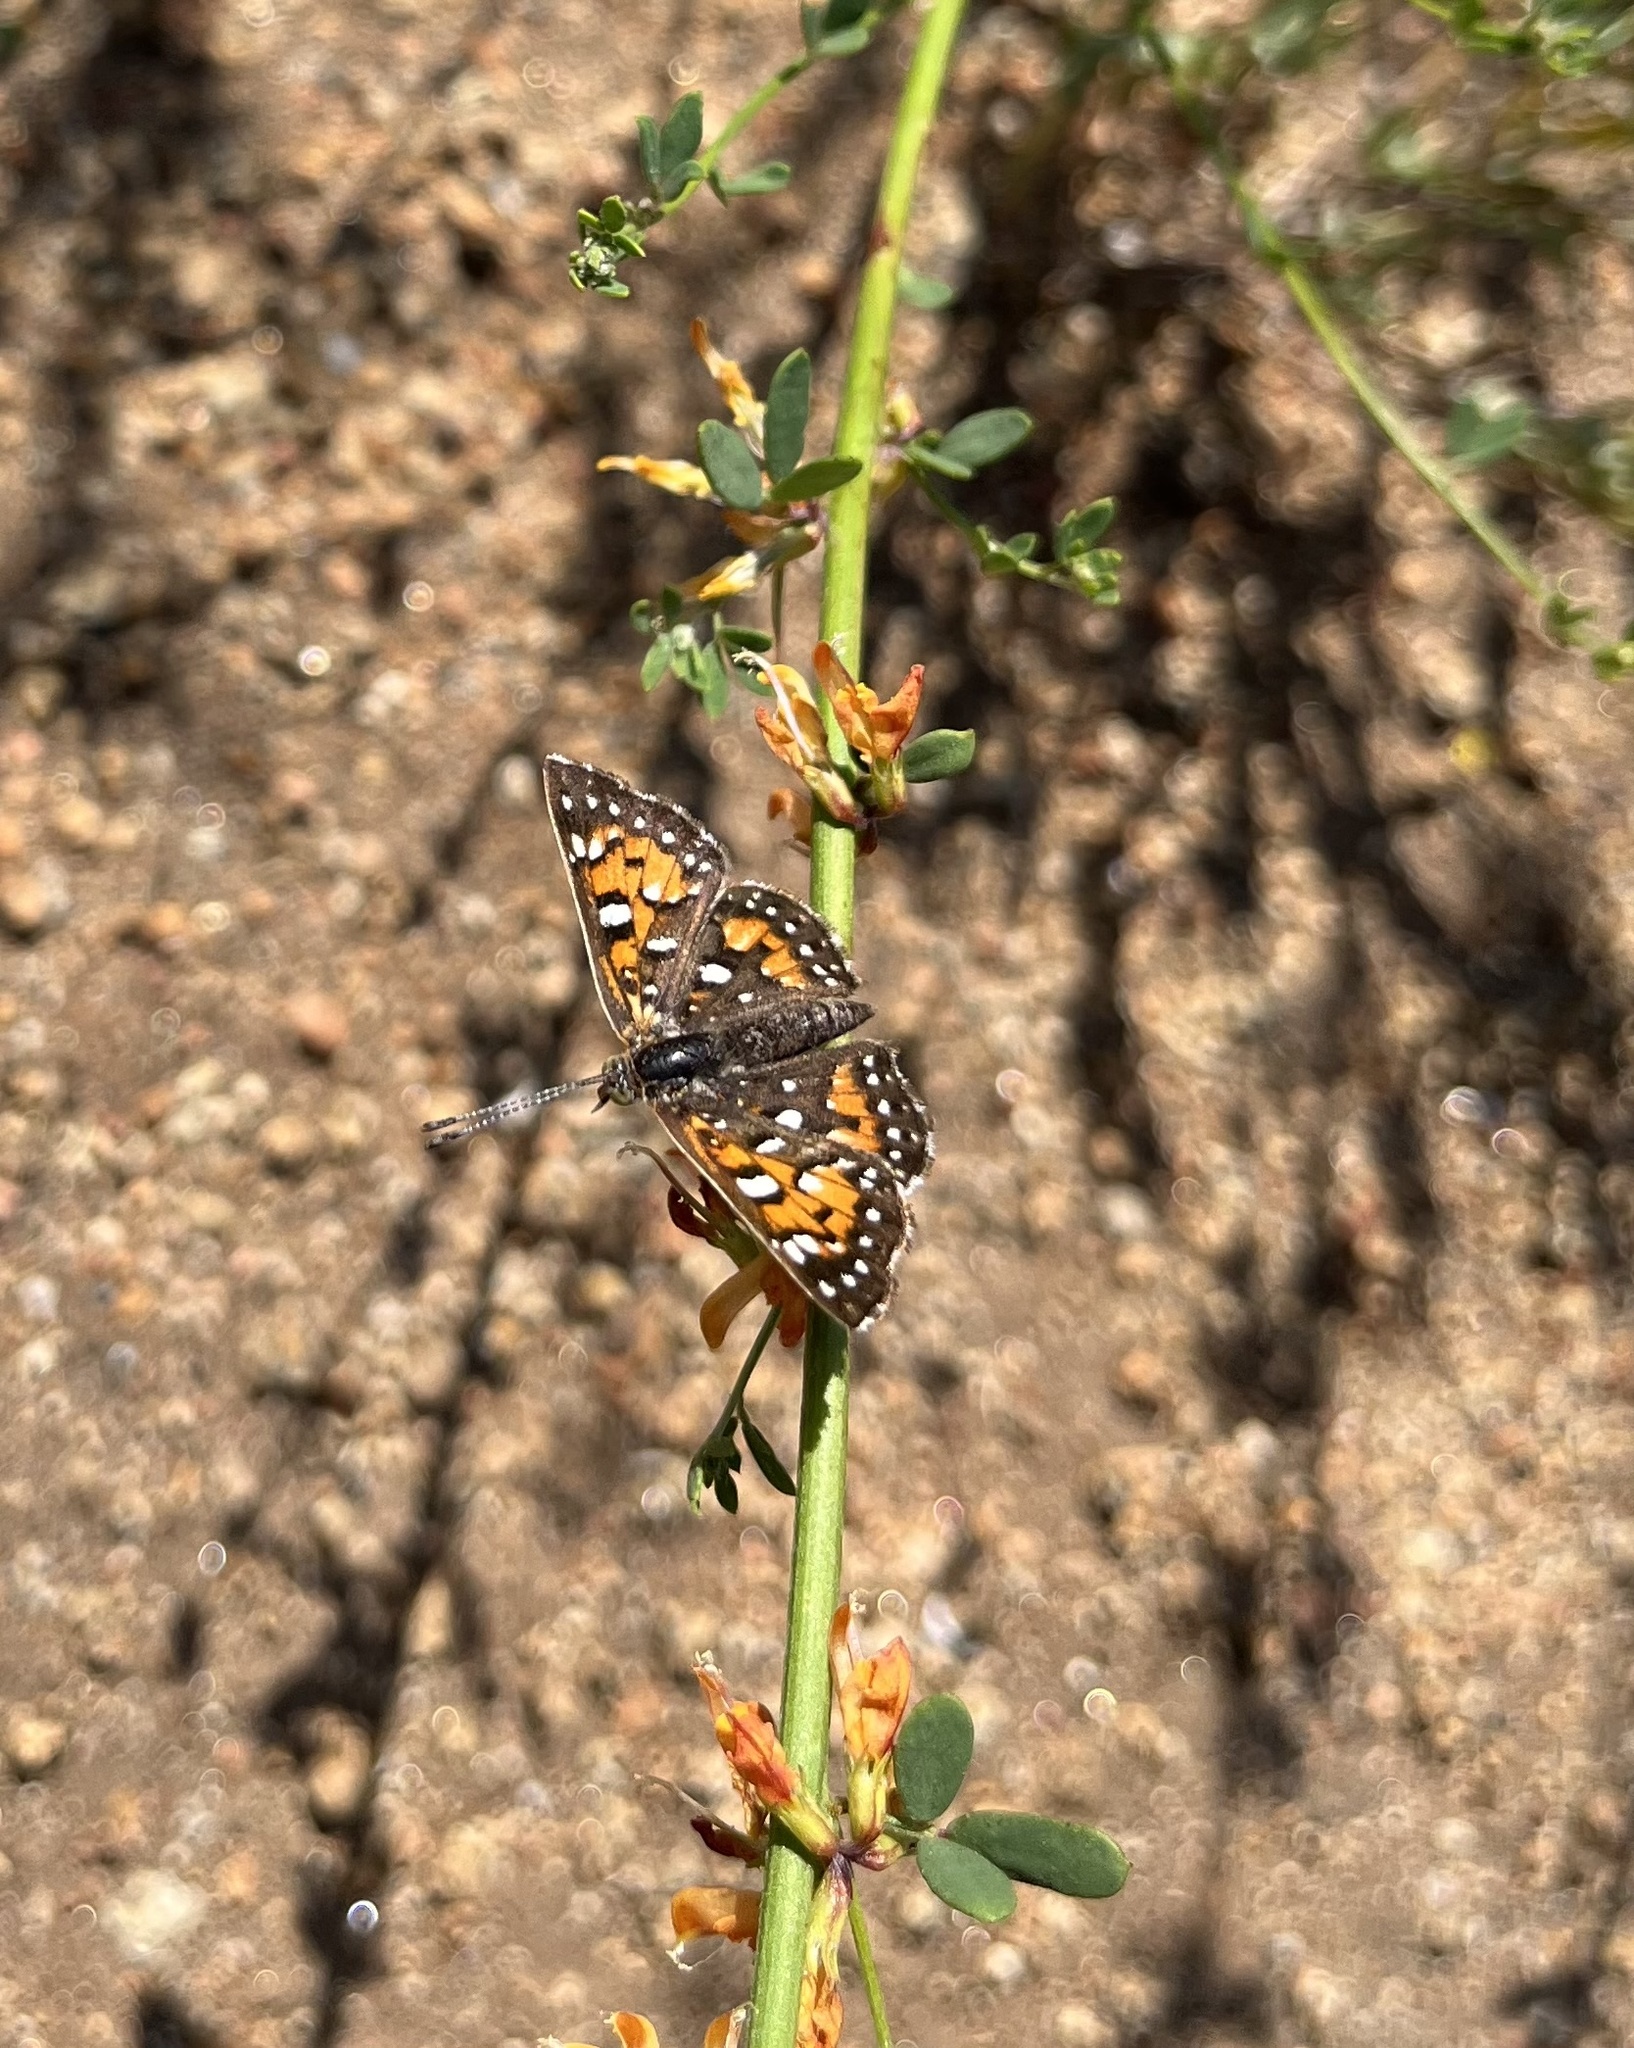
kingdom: Animalia
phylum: Arthropoda
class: Insecta
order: Lepidoptera
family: Riodinidae
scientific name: Riodinidae
